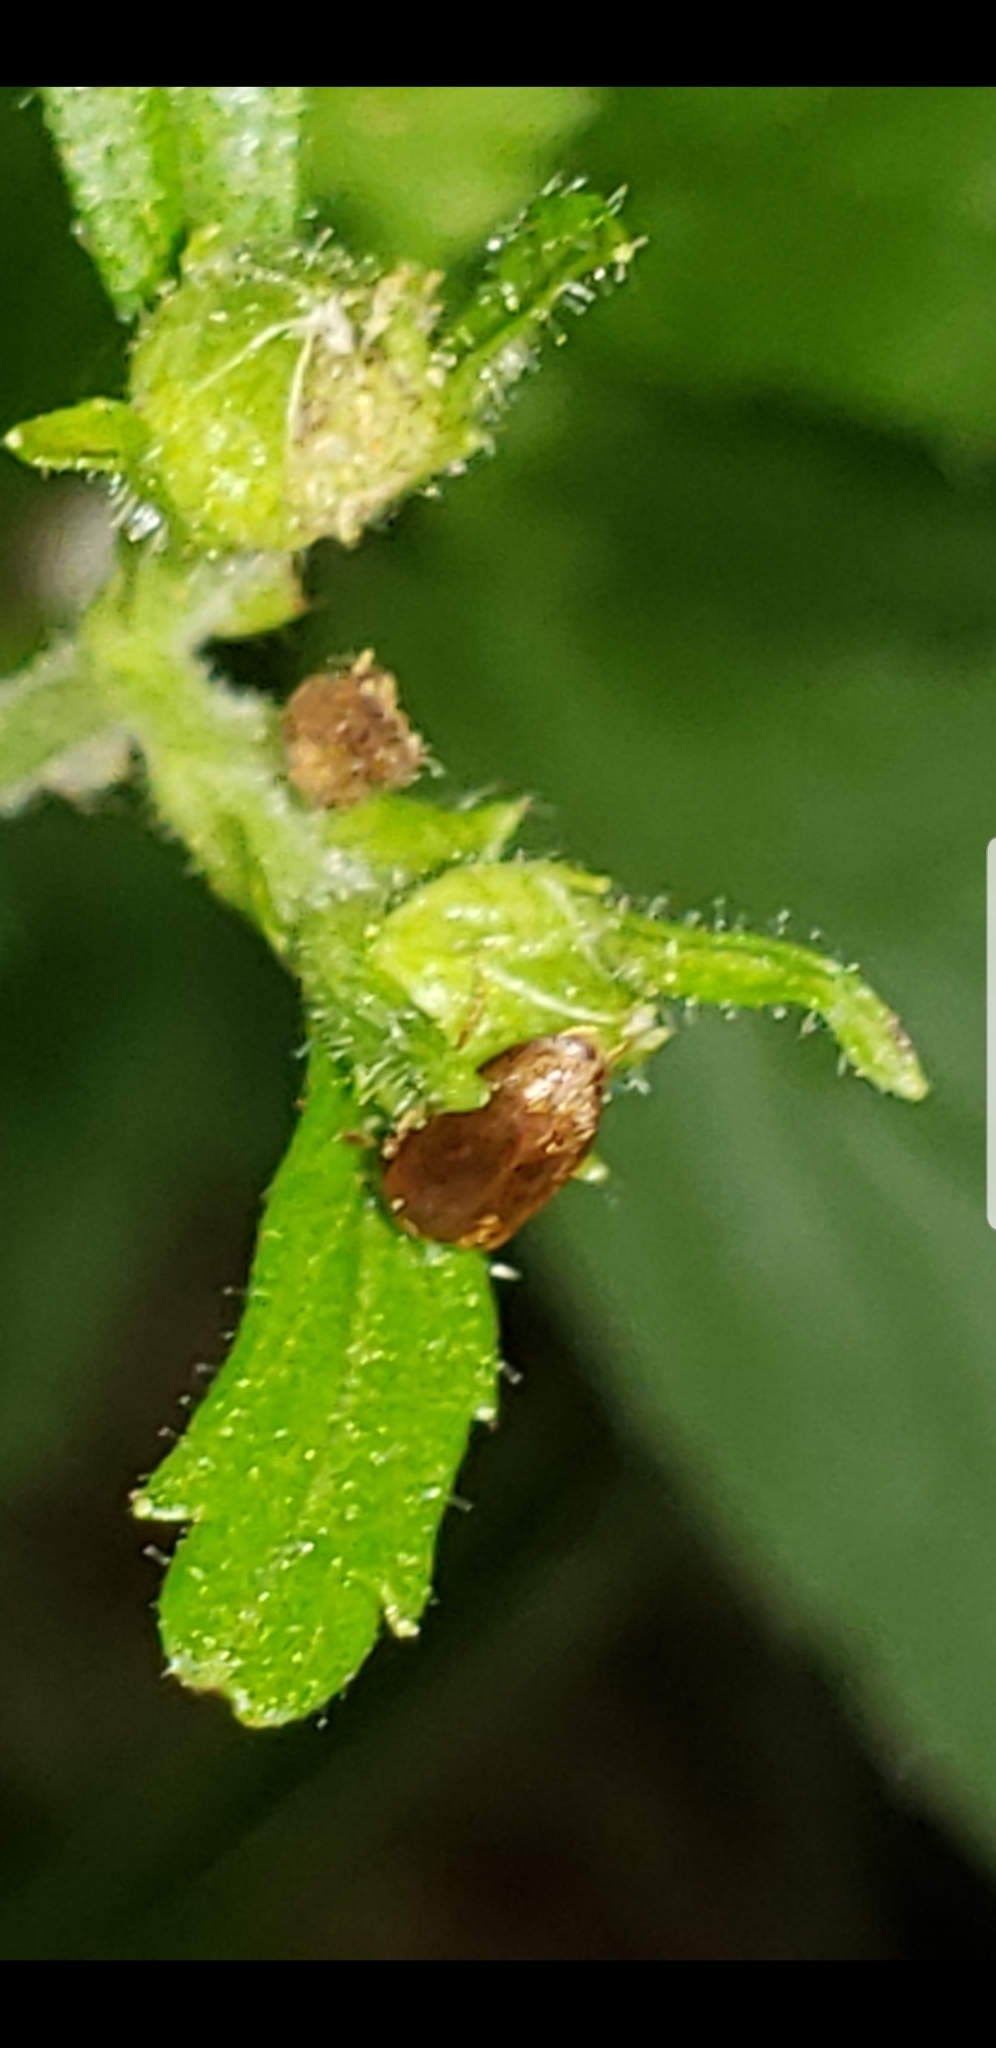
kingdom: Animalia
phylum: Arthropoda
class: Insecta
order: Coleoptera
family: Byturidae
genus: Byturus
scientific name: Byturus unicolor
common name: Raspberry fruitworm beetle
